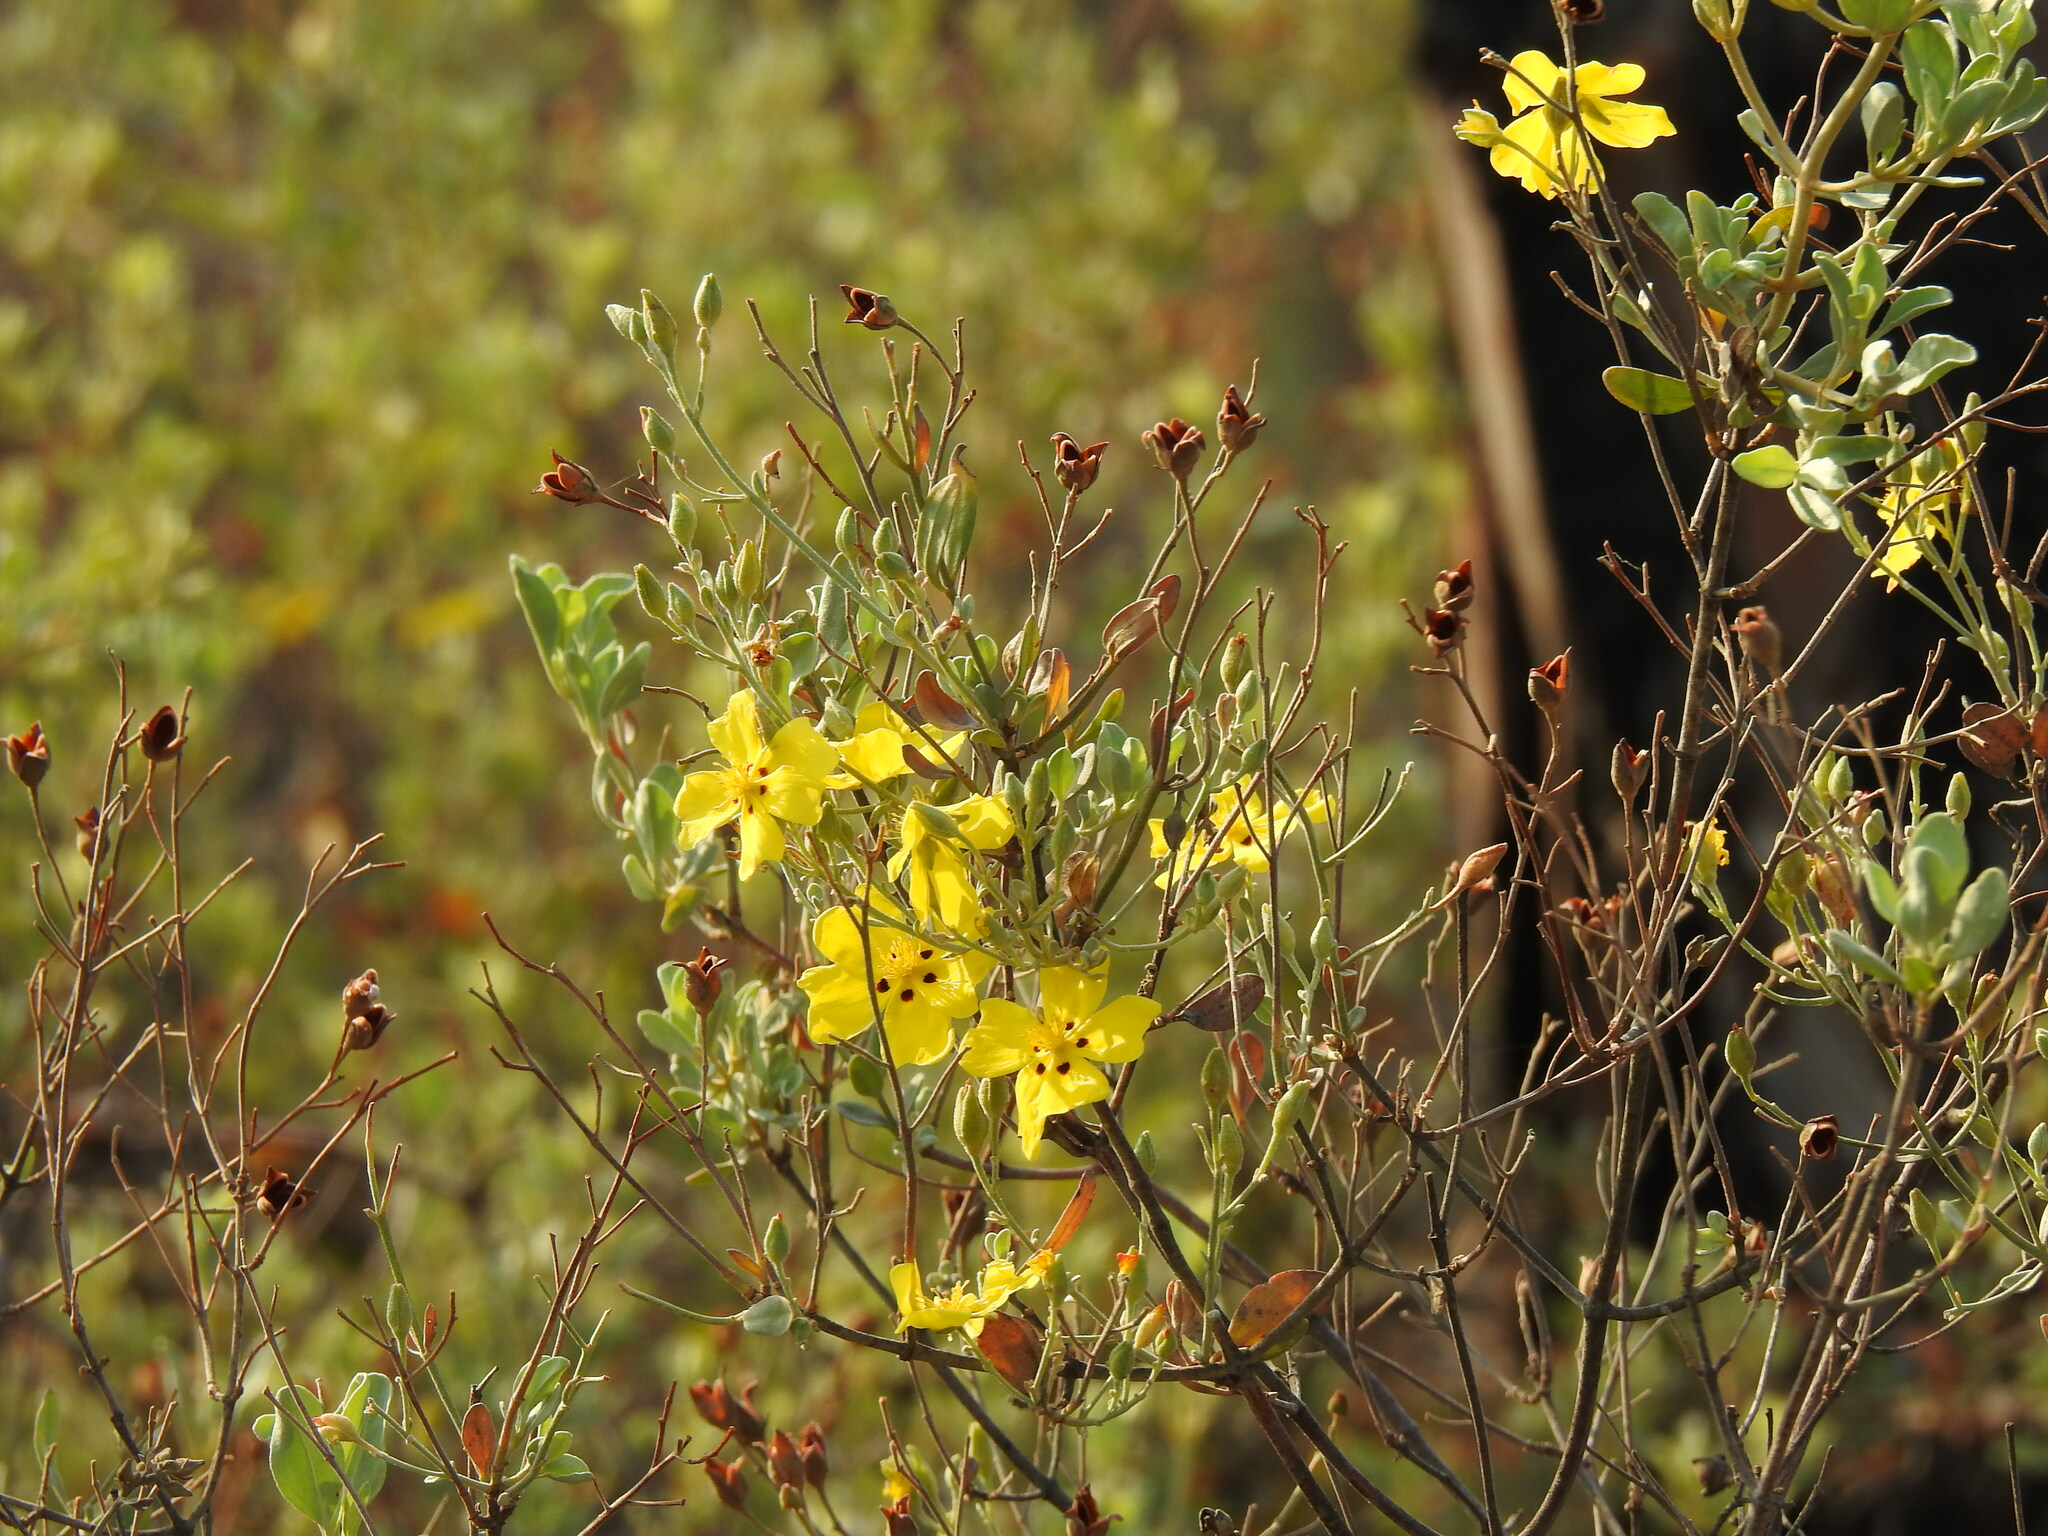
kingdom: Plantae
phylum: Tracheophyta
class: Magnoliopsida
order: Malvales
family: Cistaceae
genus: Halimium
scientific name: Halimium halimifolium
